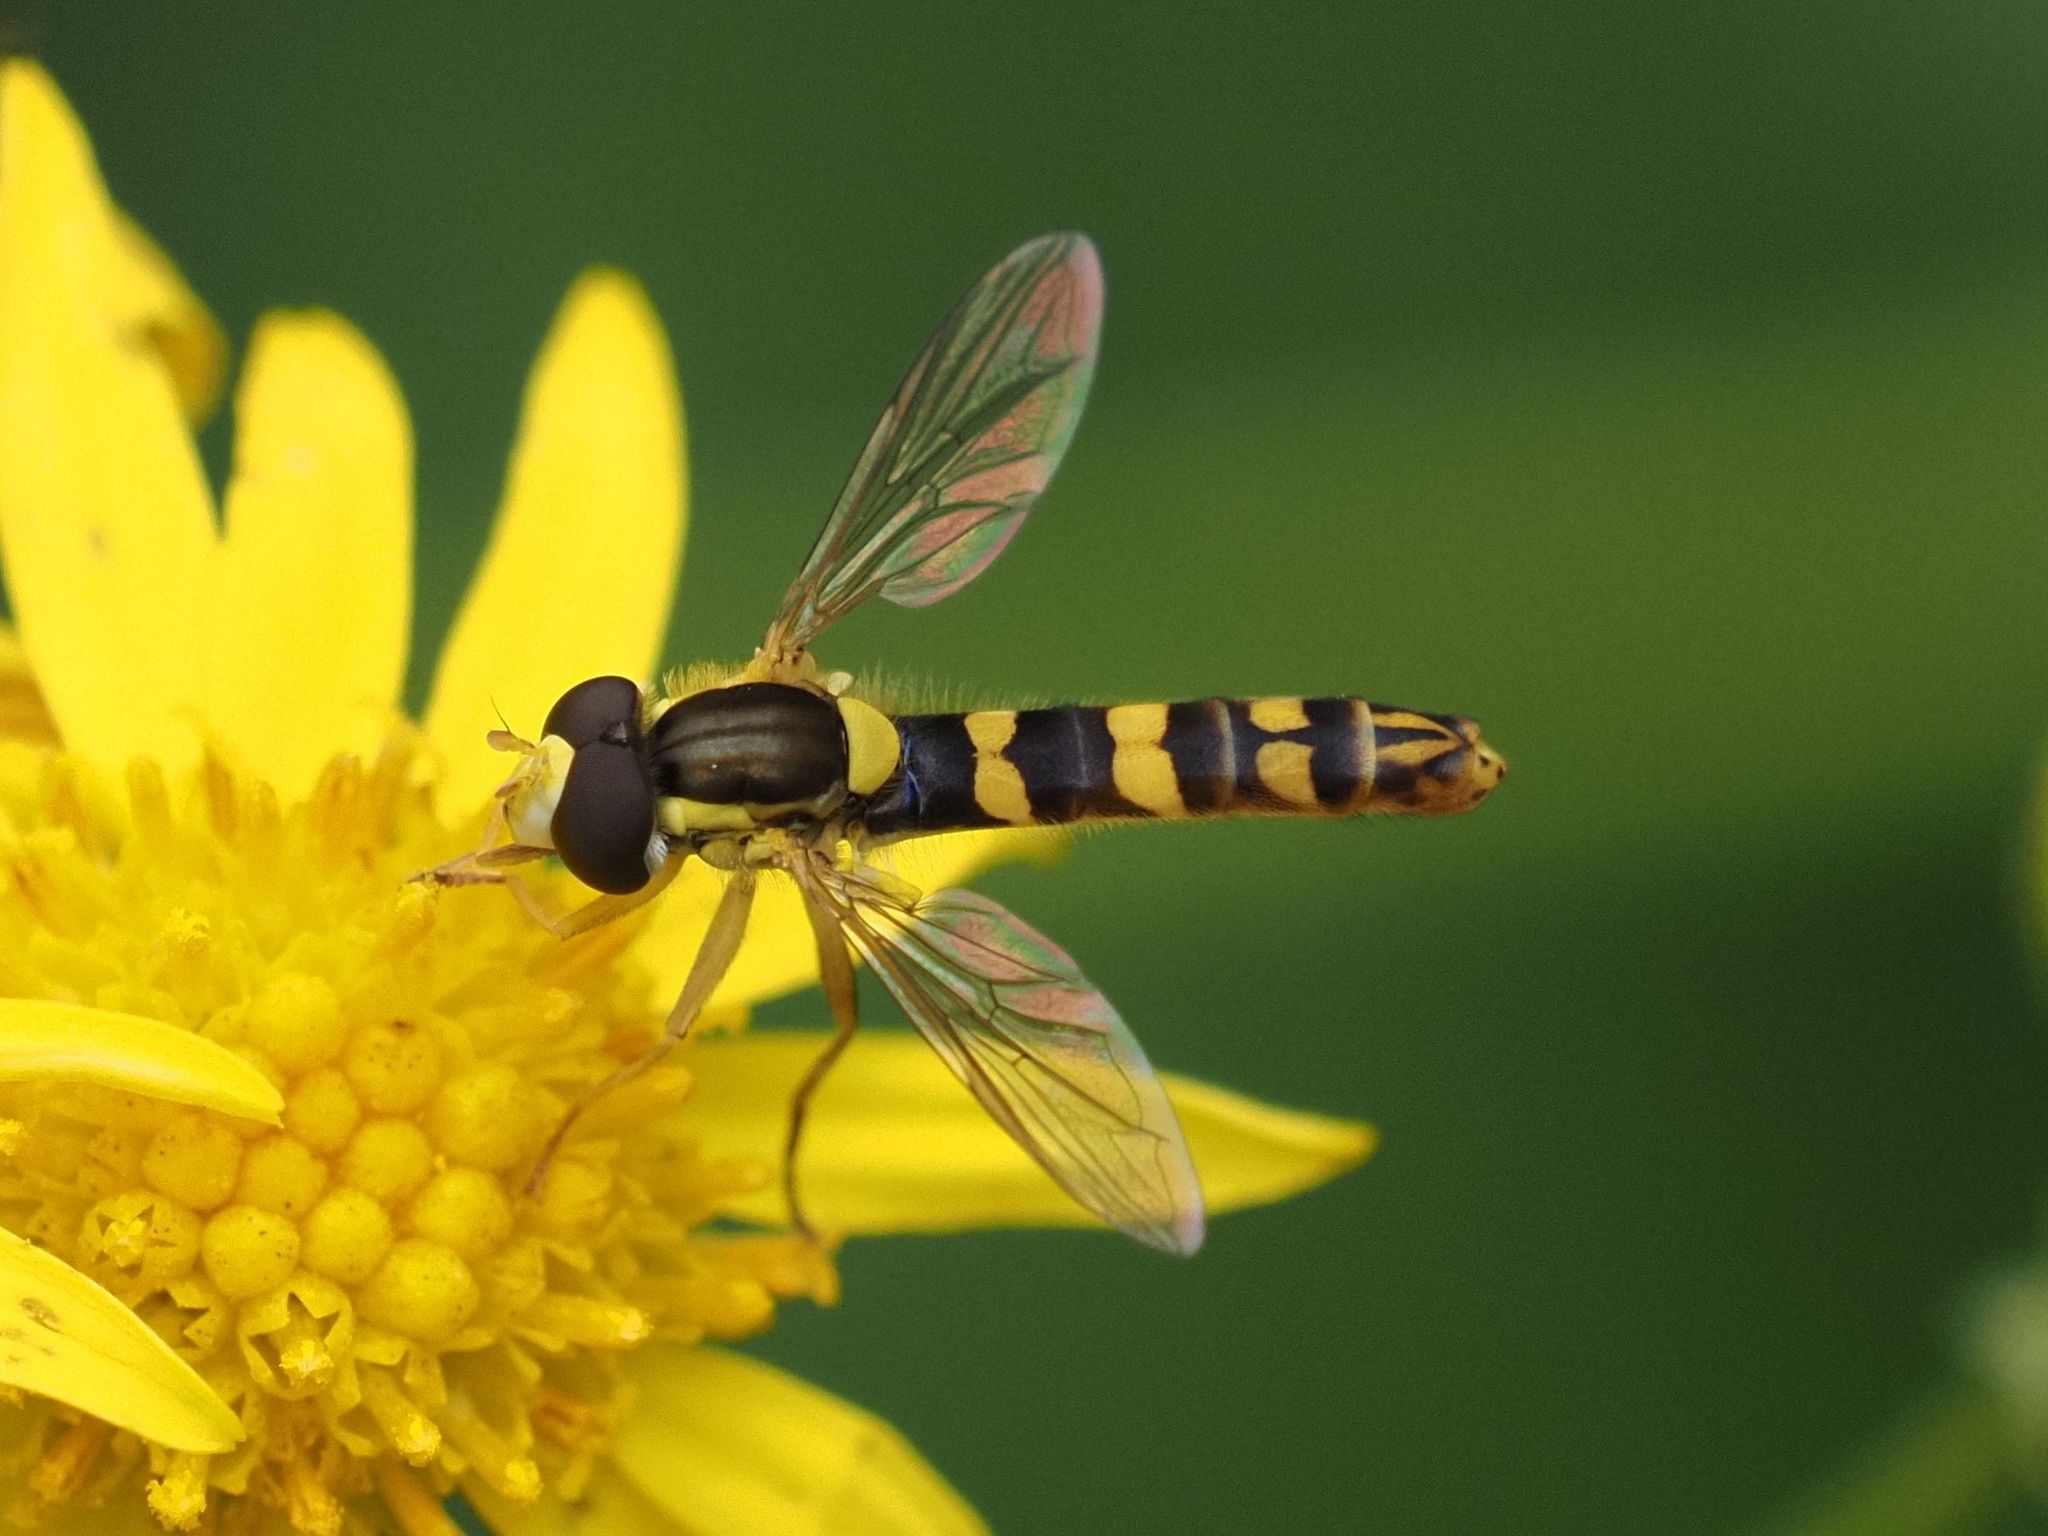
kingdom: Animalia
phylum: Arthropoda
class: Insecta
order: Diptera
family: Syrphidae
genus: Sphaerophoria
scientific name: Sphaerophoria scripta
